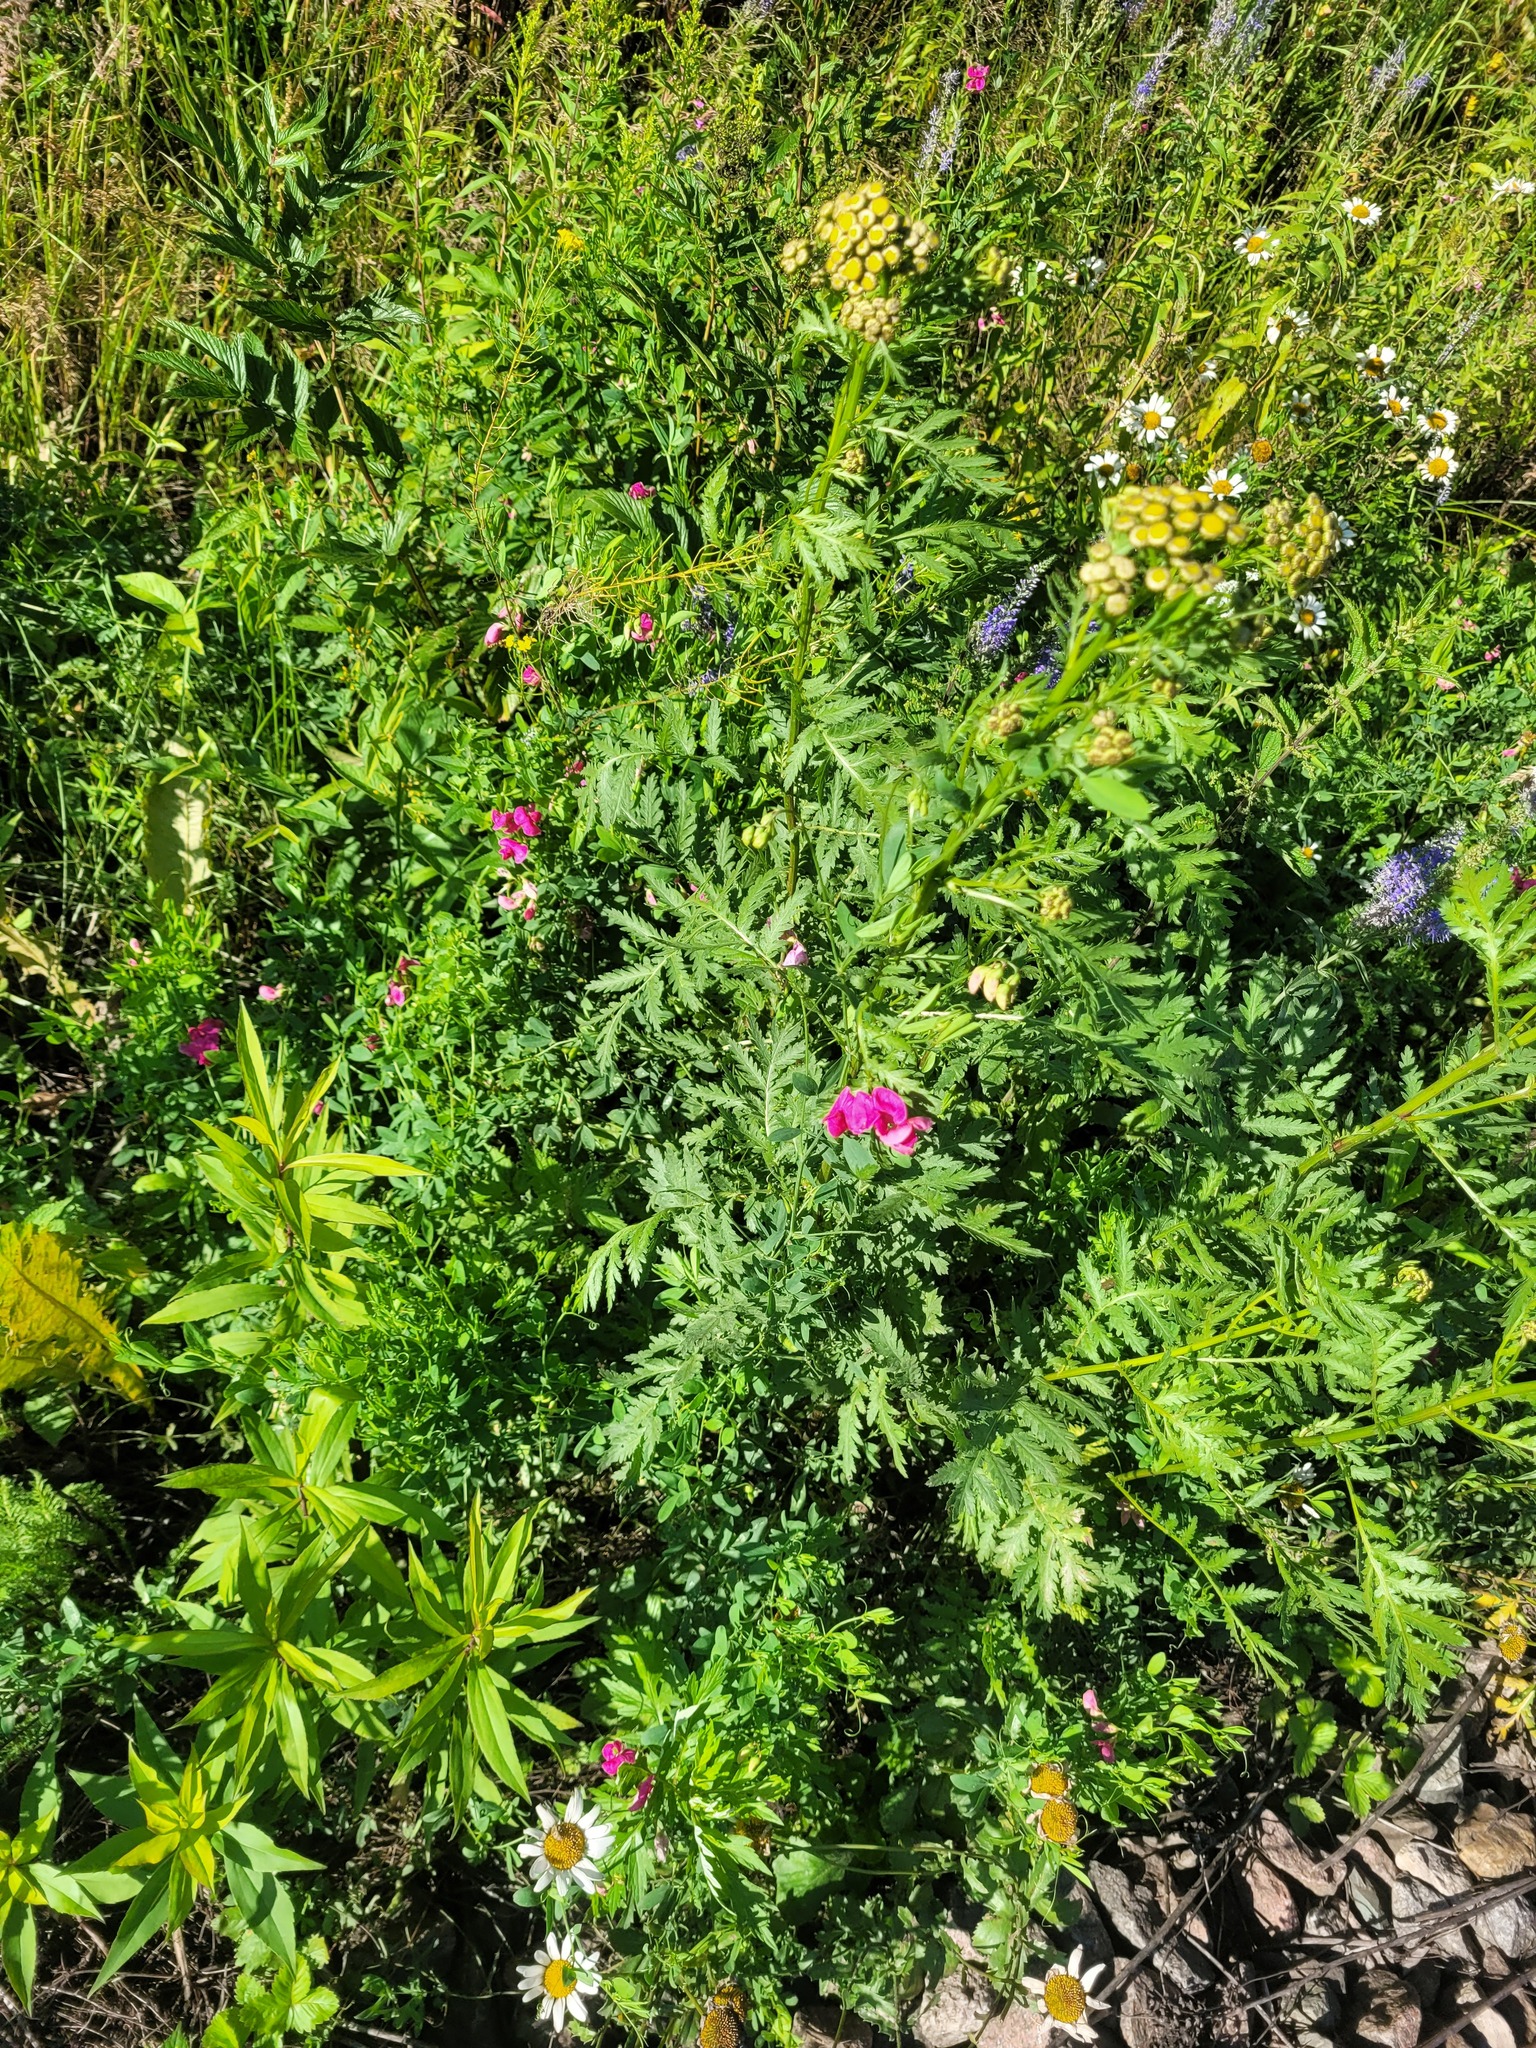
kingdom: Plantae
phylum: Tracheophyta
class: Magnoliopsida
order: Fabales
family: Fabaceae
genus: Lathyrus
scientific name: Lathyrus tuberosus
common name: Tuberous pea
